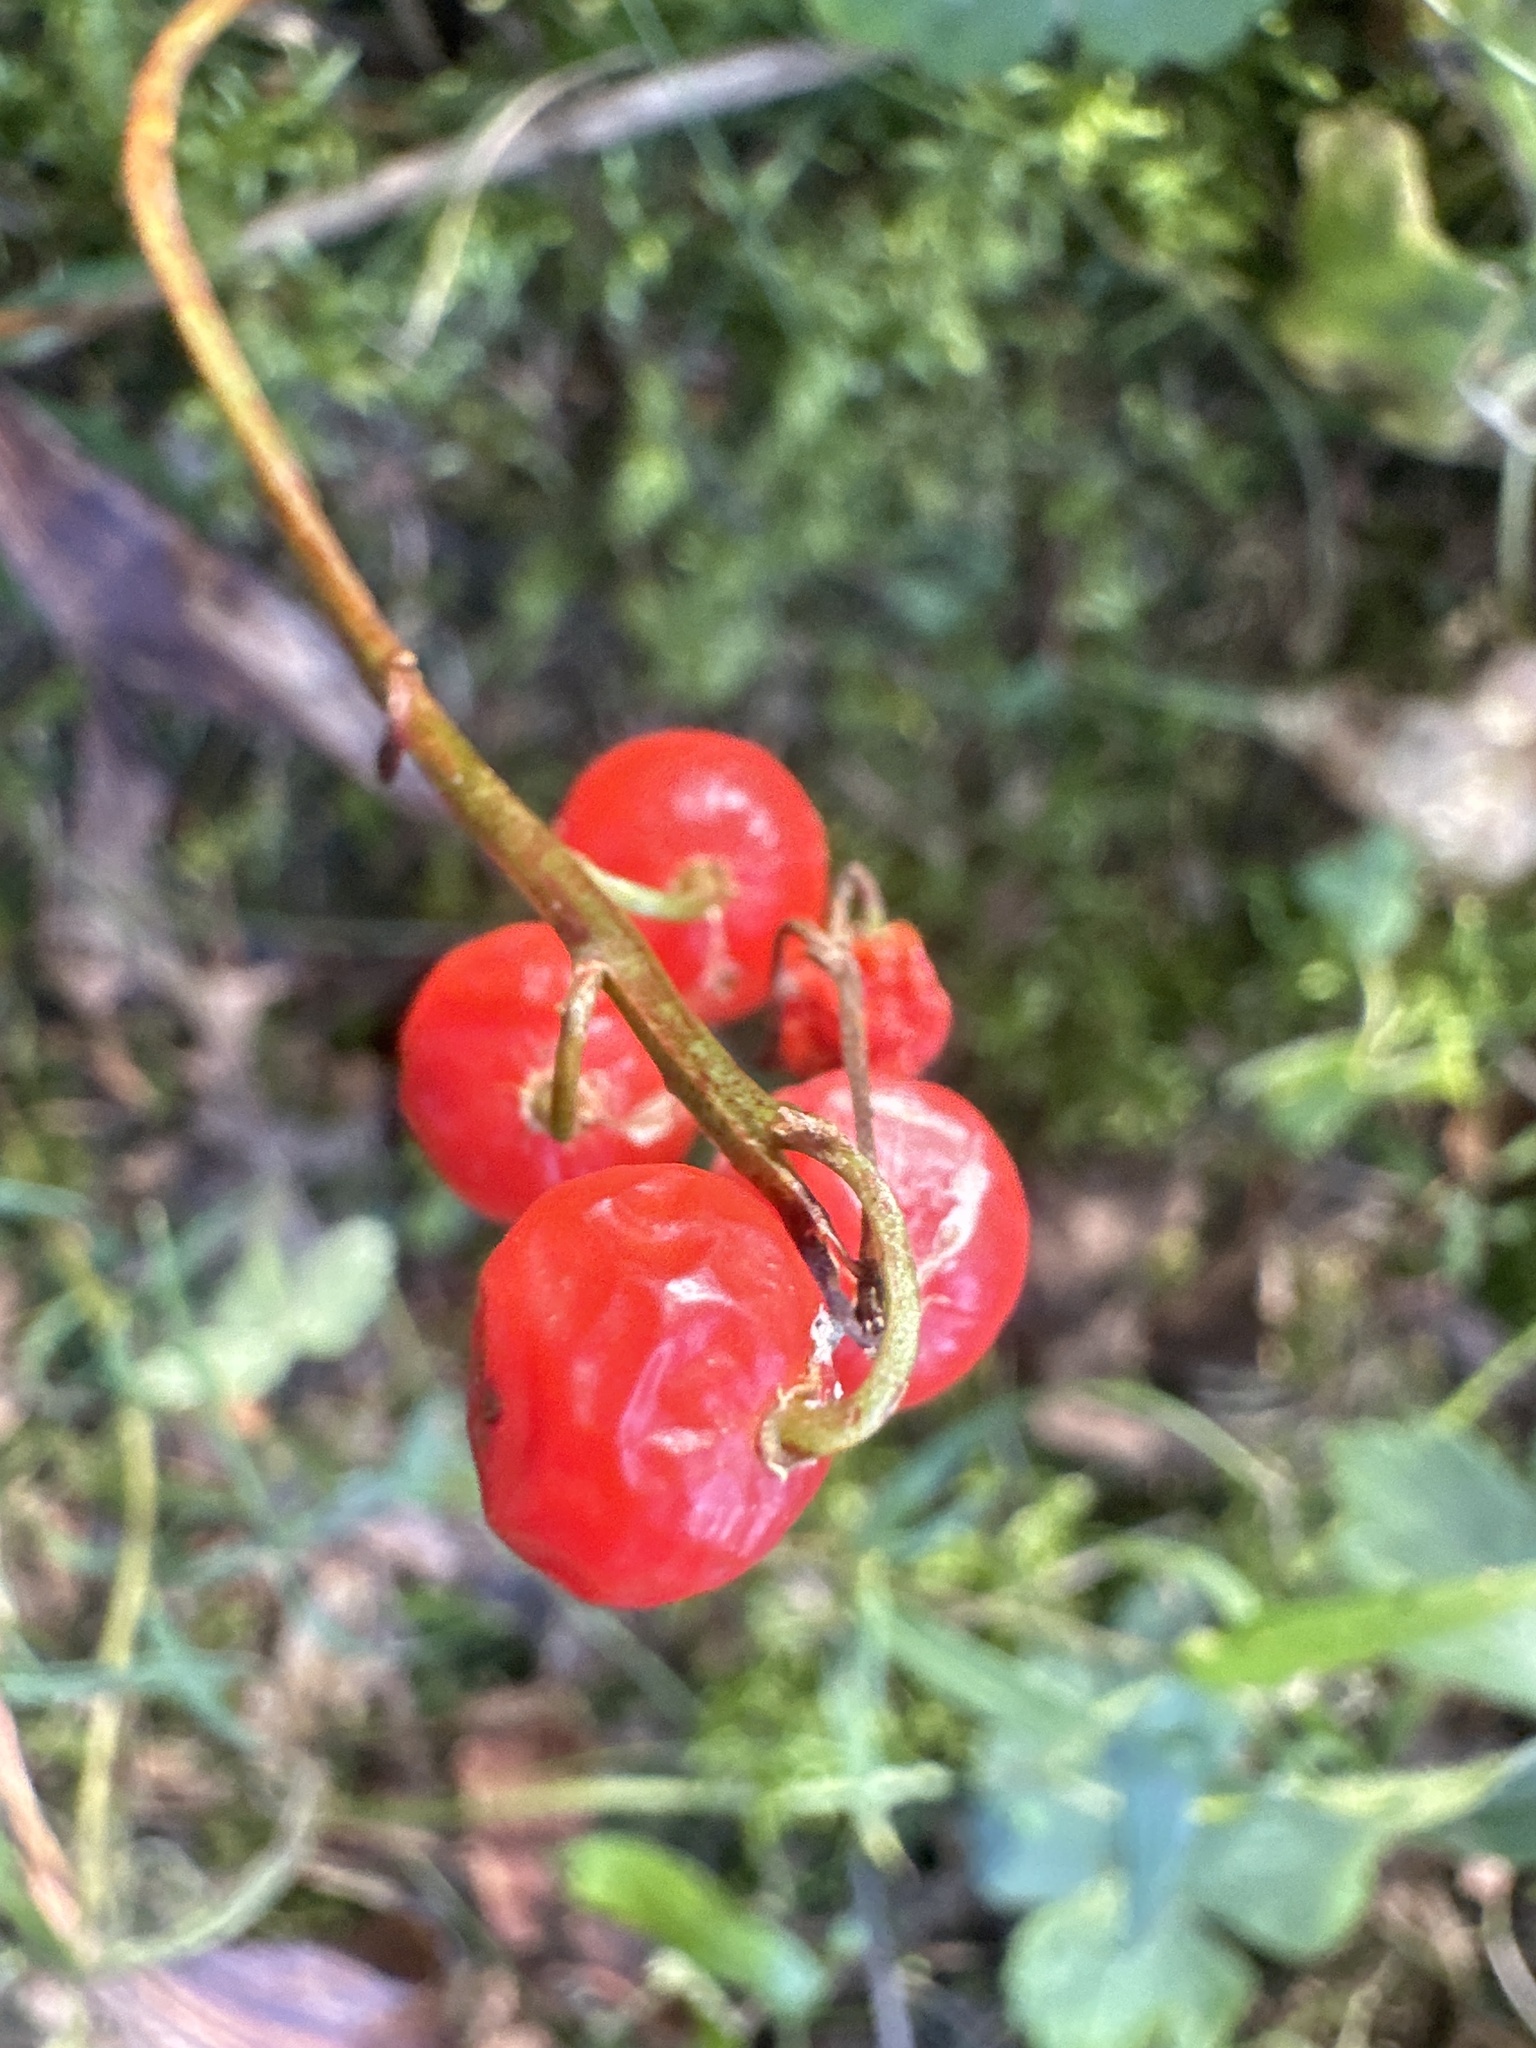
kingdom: Plantae
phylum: Tracheophyta
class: Liliopsida
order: Asparagales
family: Asparagaceae
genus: Convallaria
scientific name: Convallaria majalis
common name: Lily-of-the-valley
